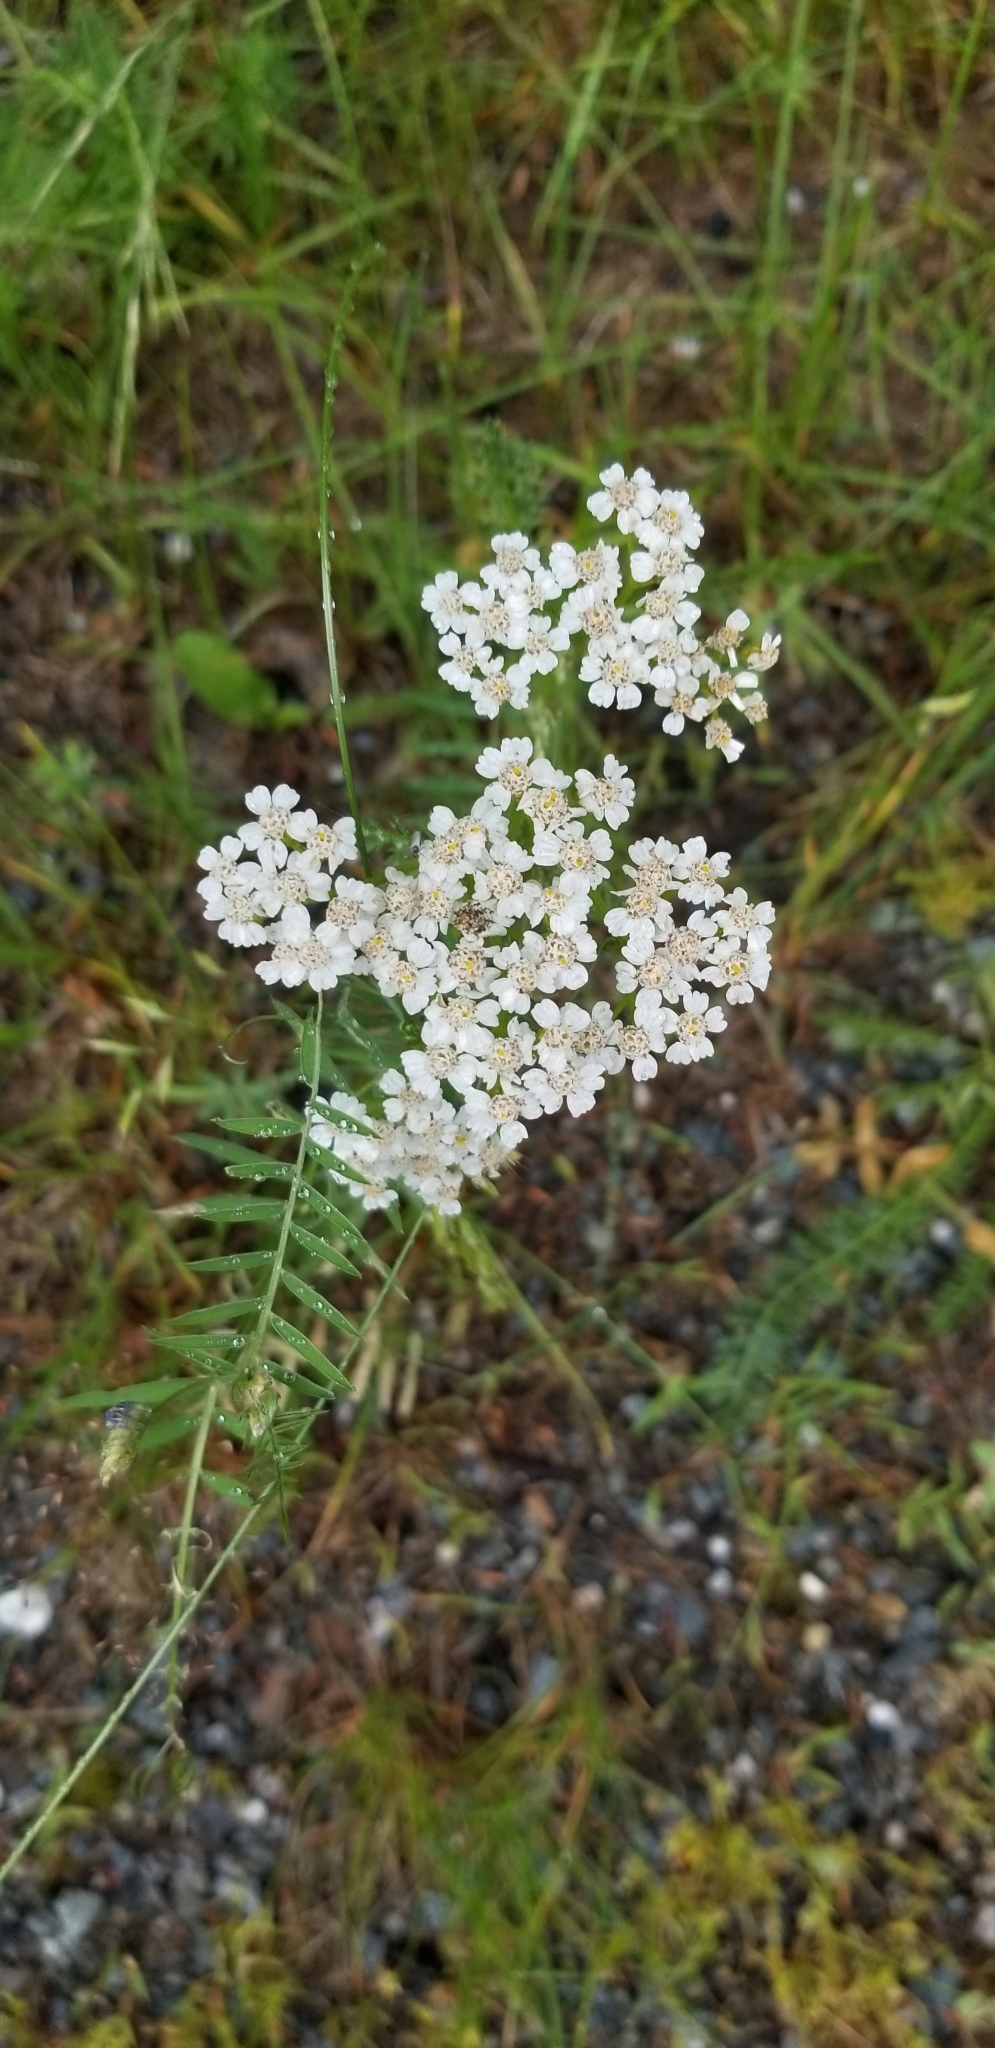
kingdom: Plantae
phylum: Tracheophyta
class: Magnoliopsida
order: Asterales
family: Asteraceae
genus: Achillea
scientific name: Achillea millefolium
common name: Yarrow
